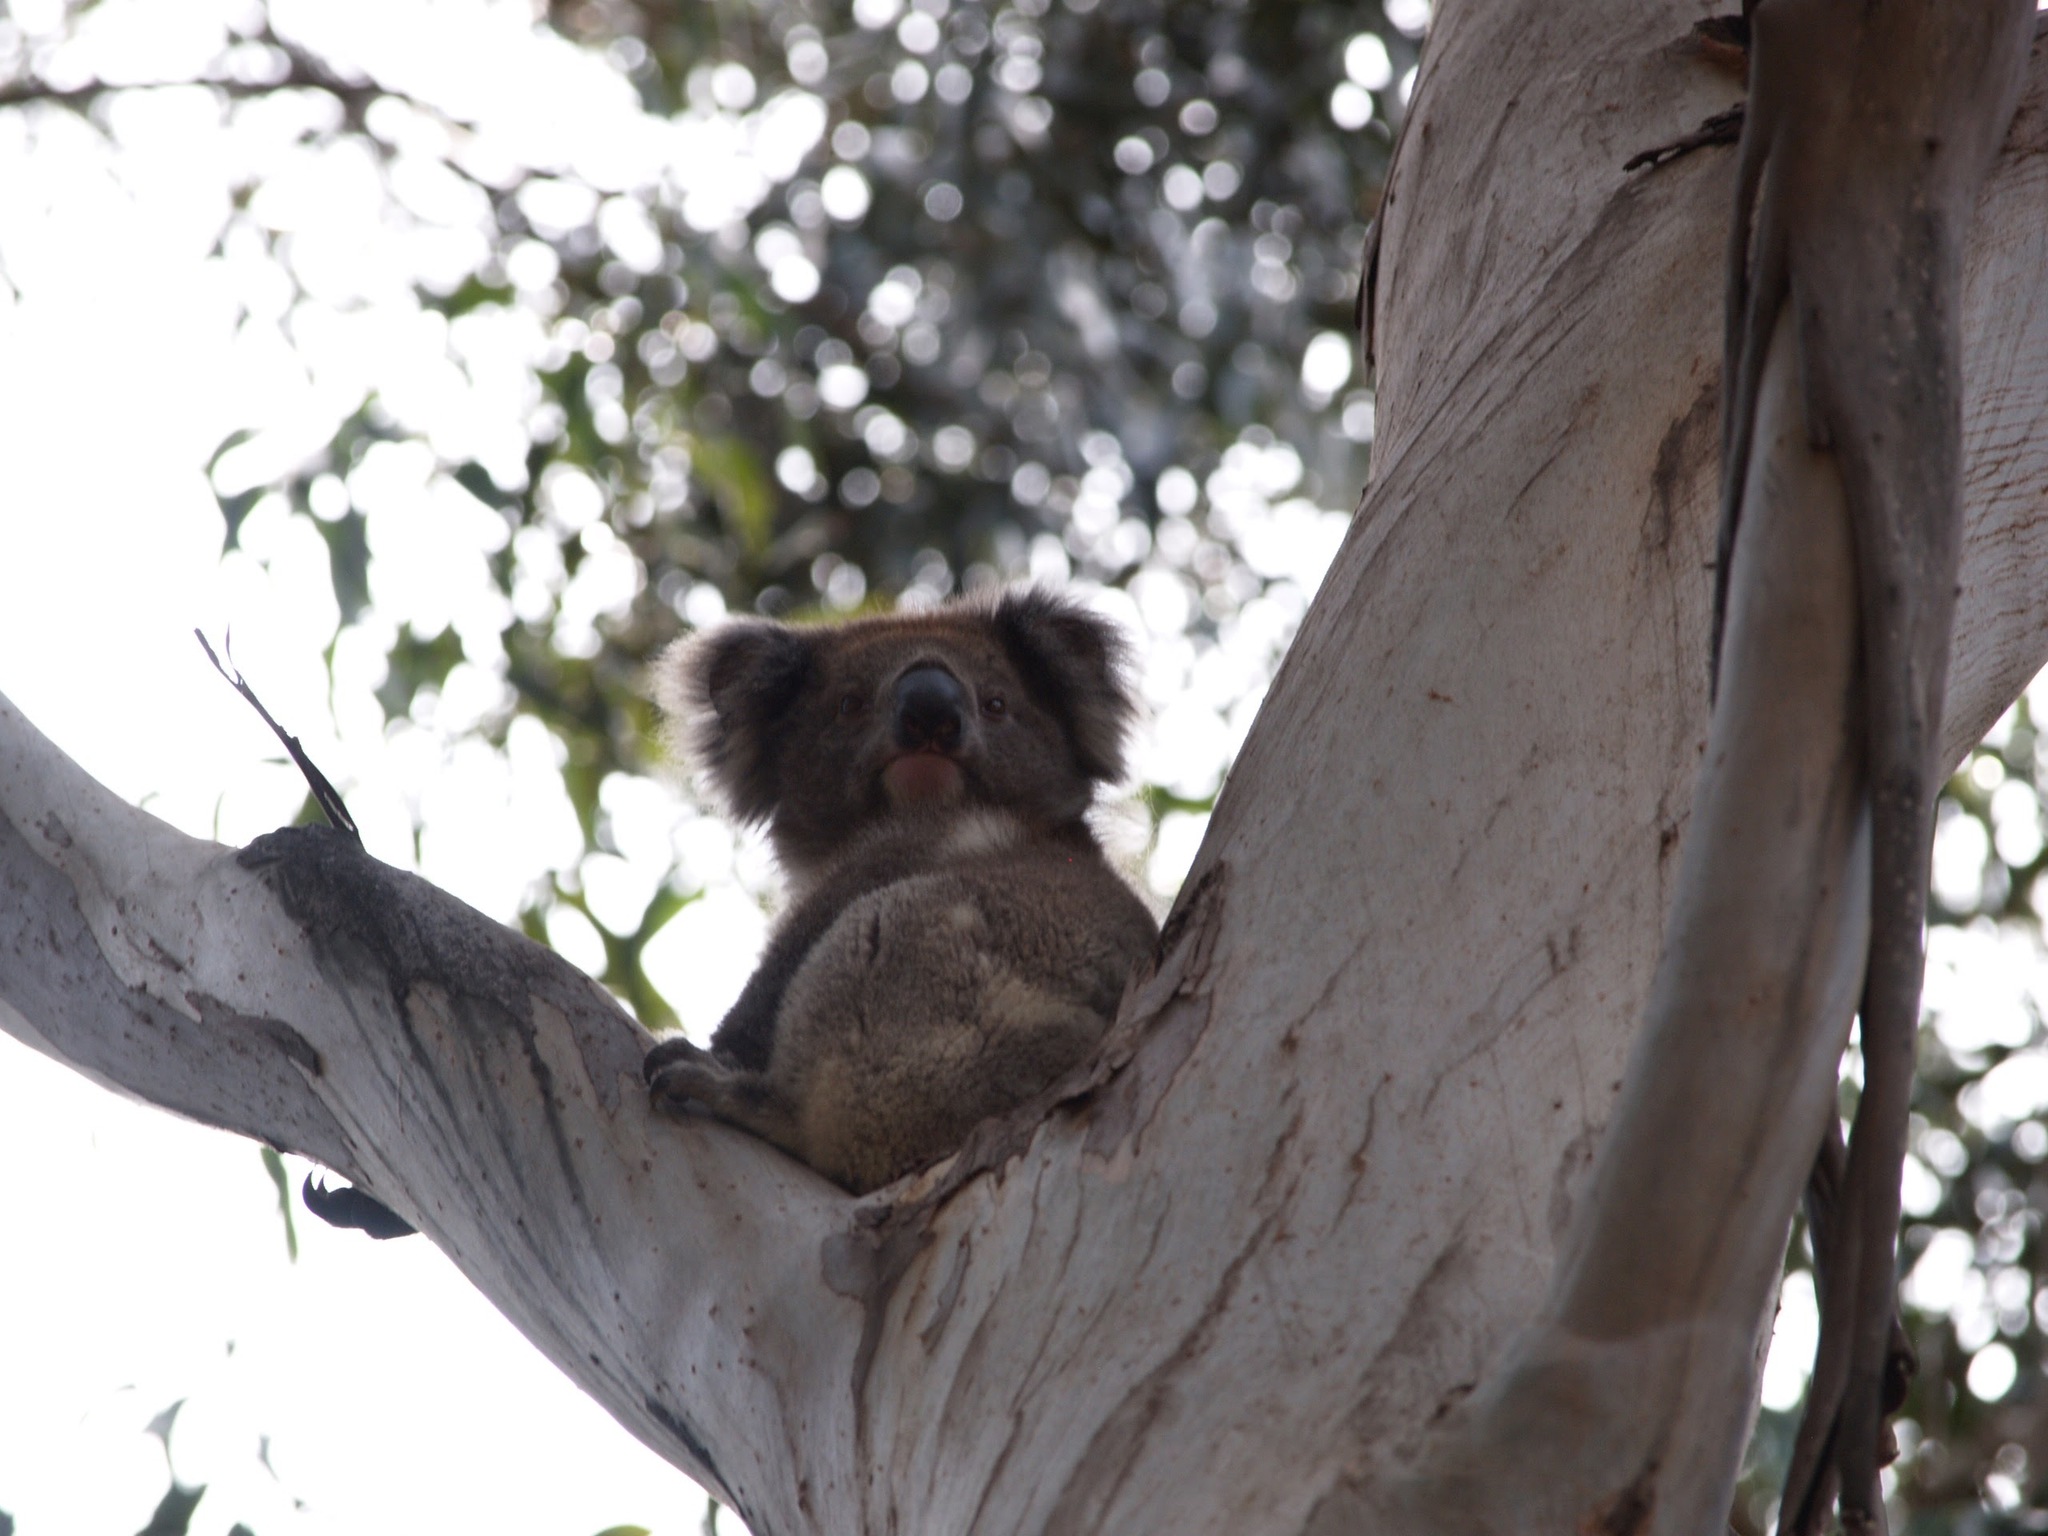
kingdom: Animalia
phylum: Chordata
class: Mammalia
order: Diprotodontia
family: Phascolarctidae
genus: Phascolarctos
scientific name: Phascolarctos cinereus
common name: Koala
